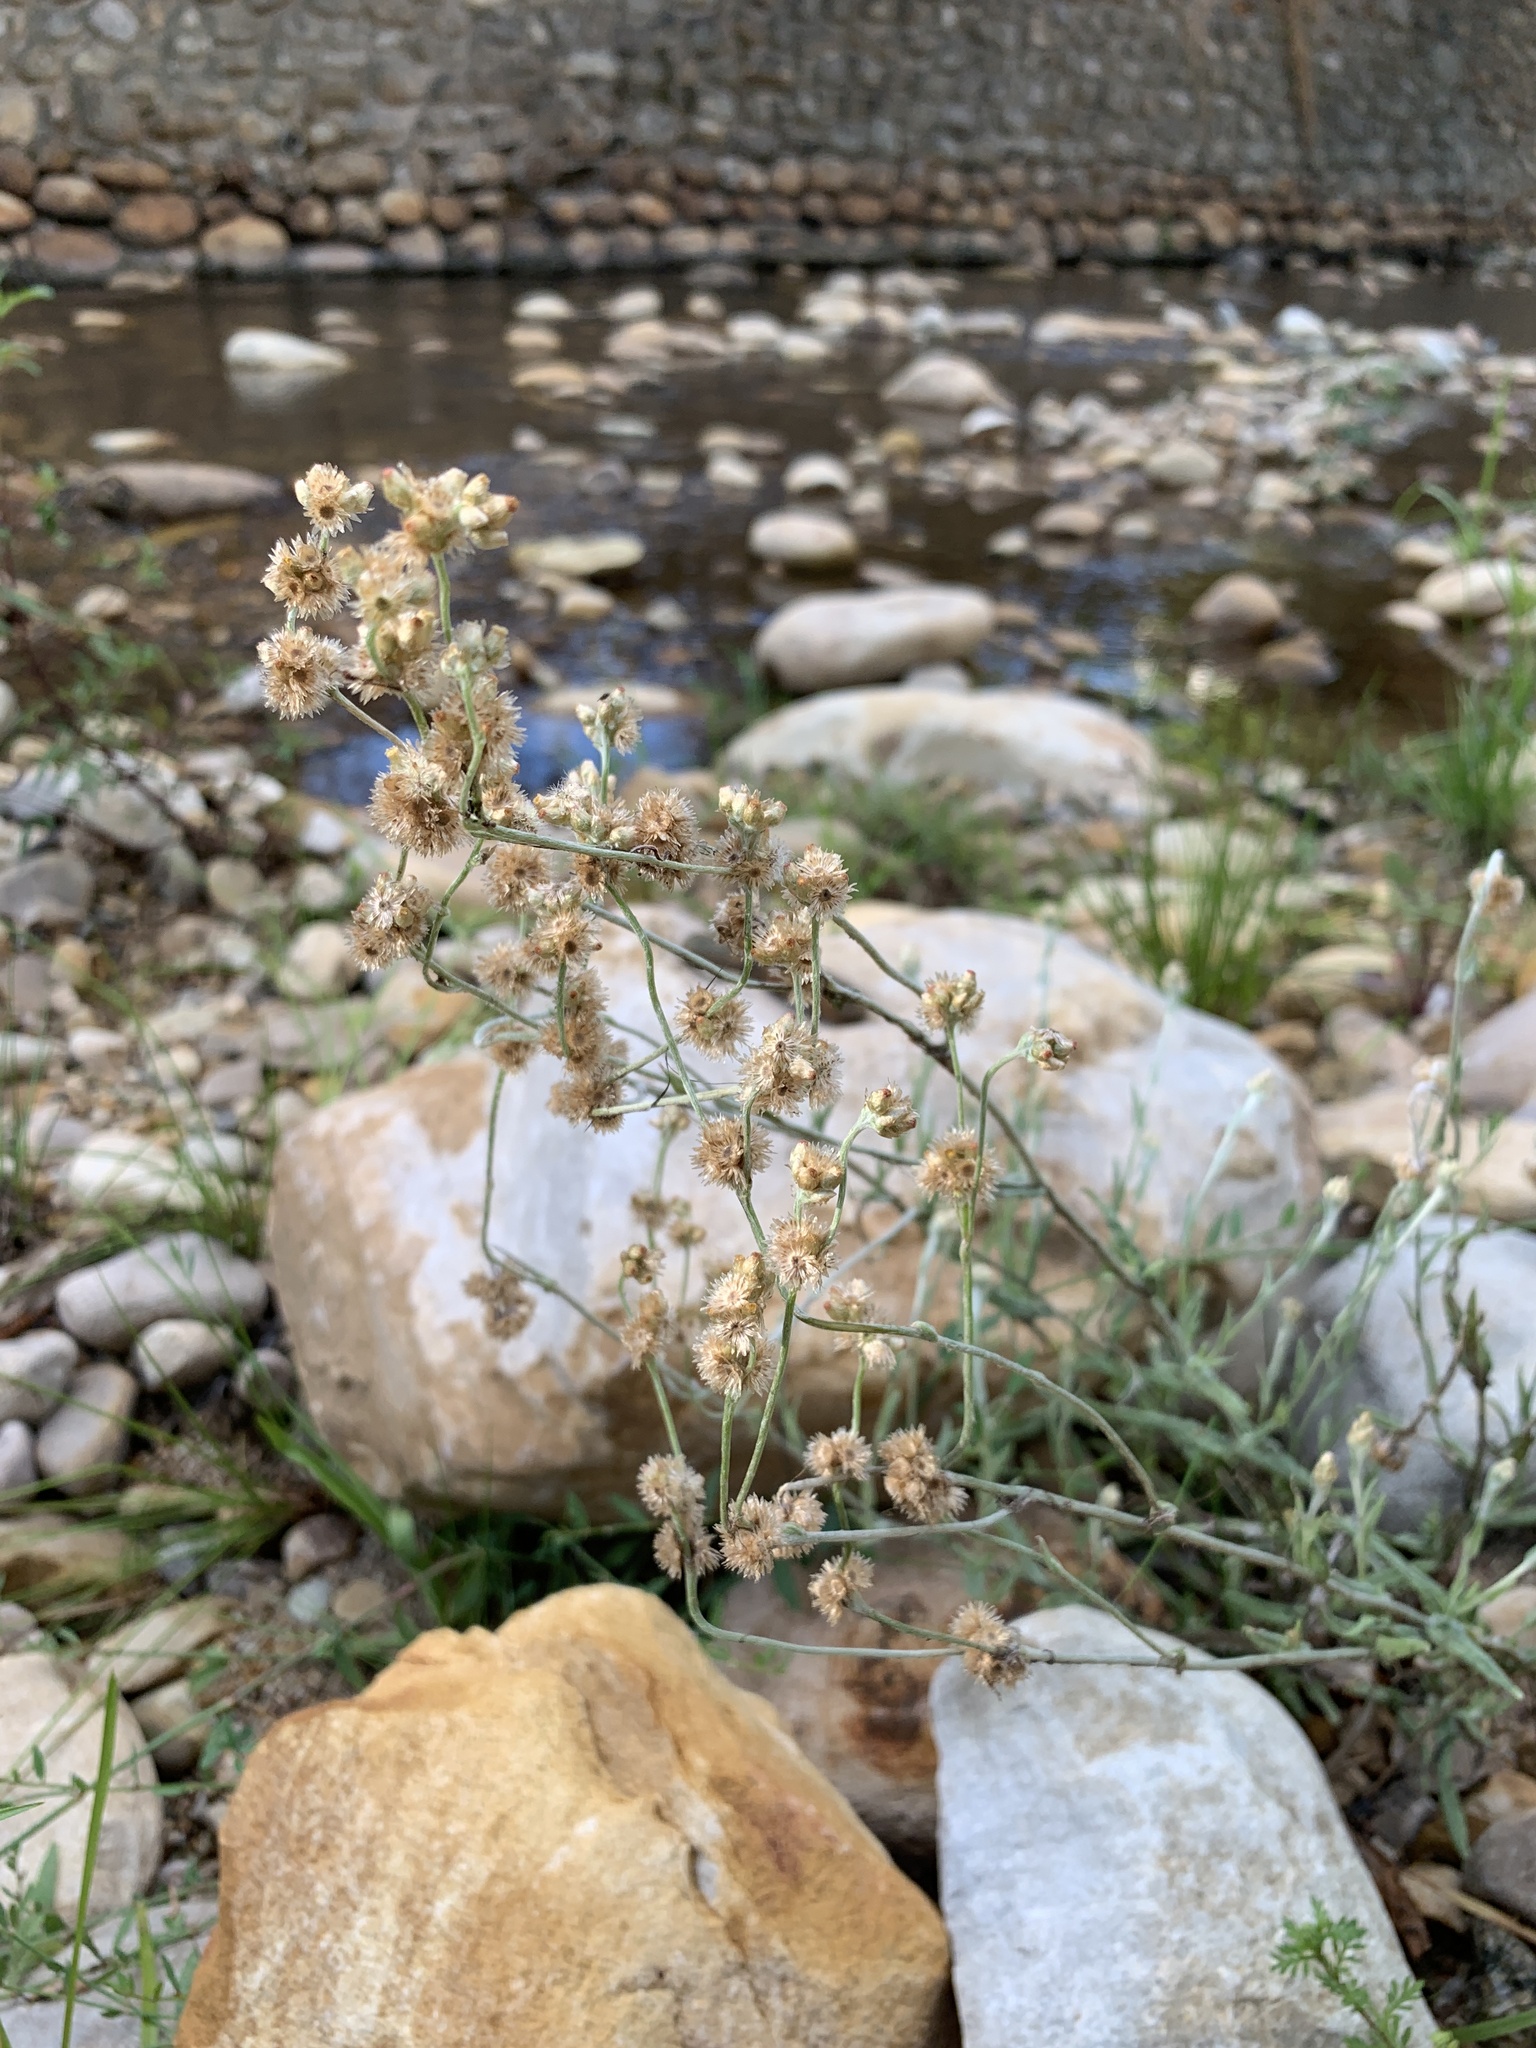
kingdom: Plantae
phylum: Tracheophyta
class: Magnoliopsida
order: Asterales
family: Asteraceae
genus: Helichrysum
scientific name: Helichrysum luteoalbum
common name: Daisy
